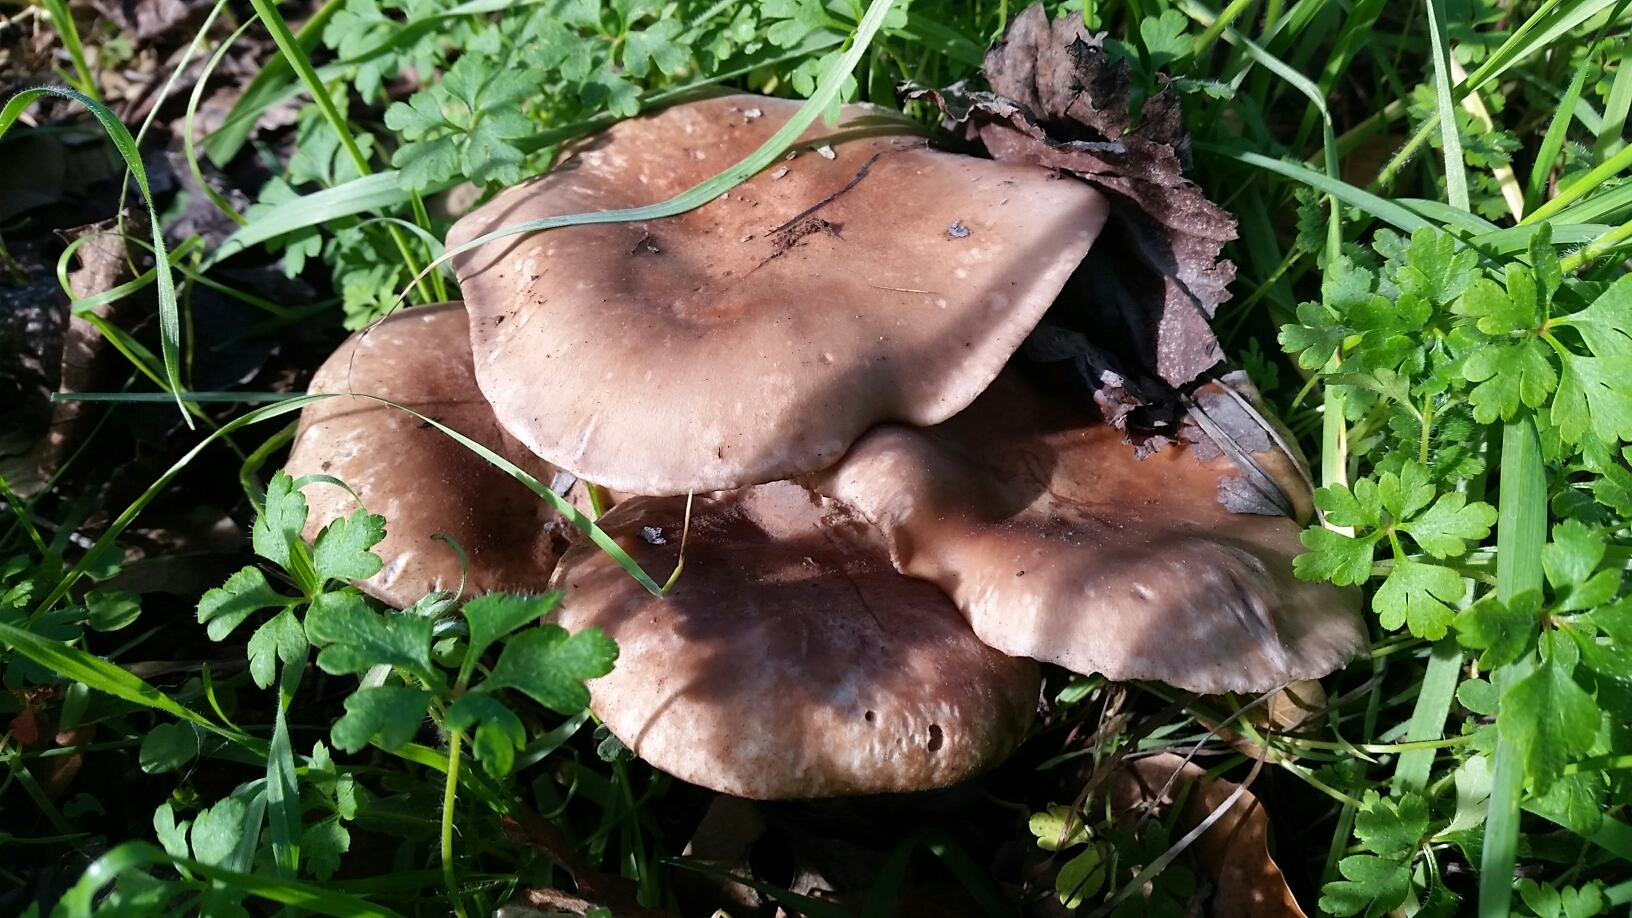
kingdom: Fungi
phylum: Basidiomycota
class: Agaricomycetes
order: Agaricales
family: Tricholomataceae
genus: Collybia
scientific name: Collybia
